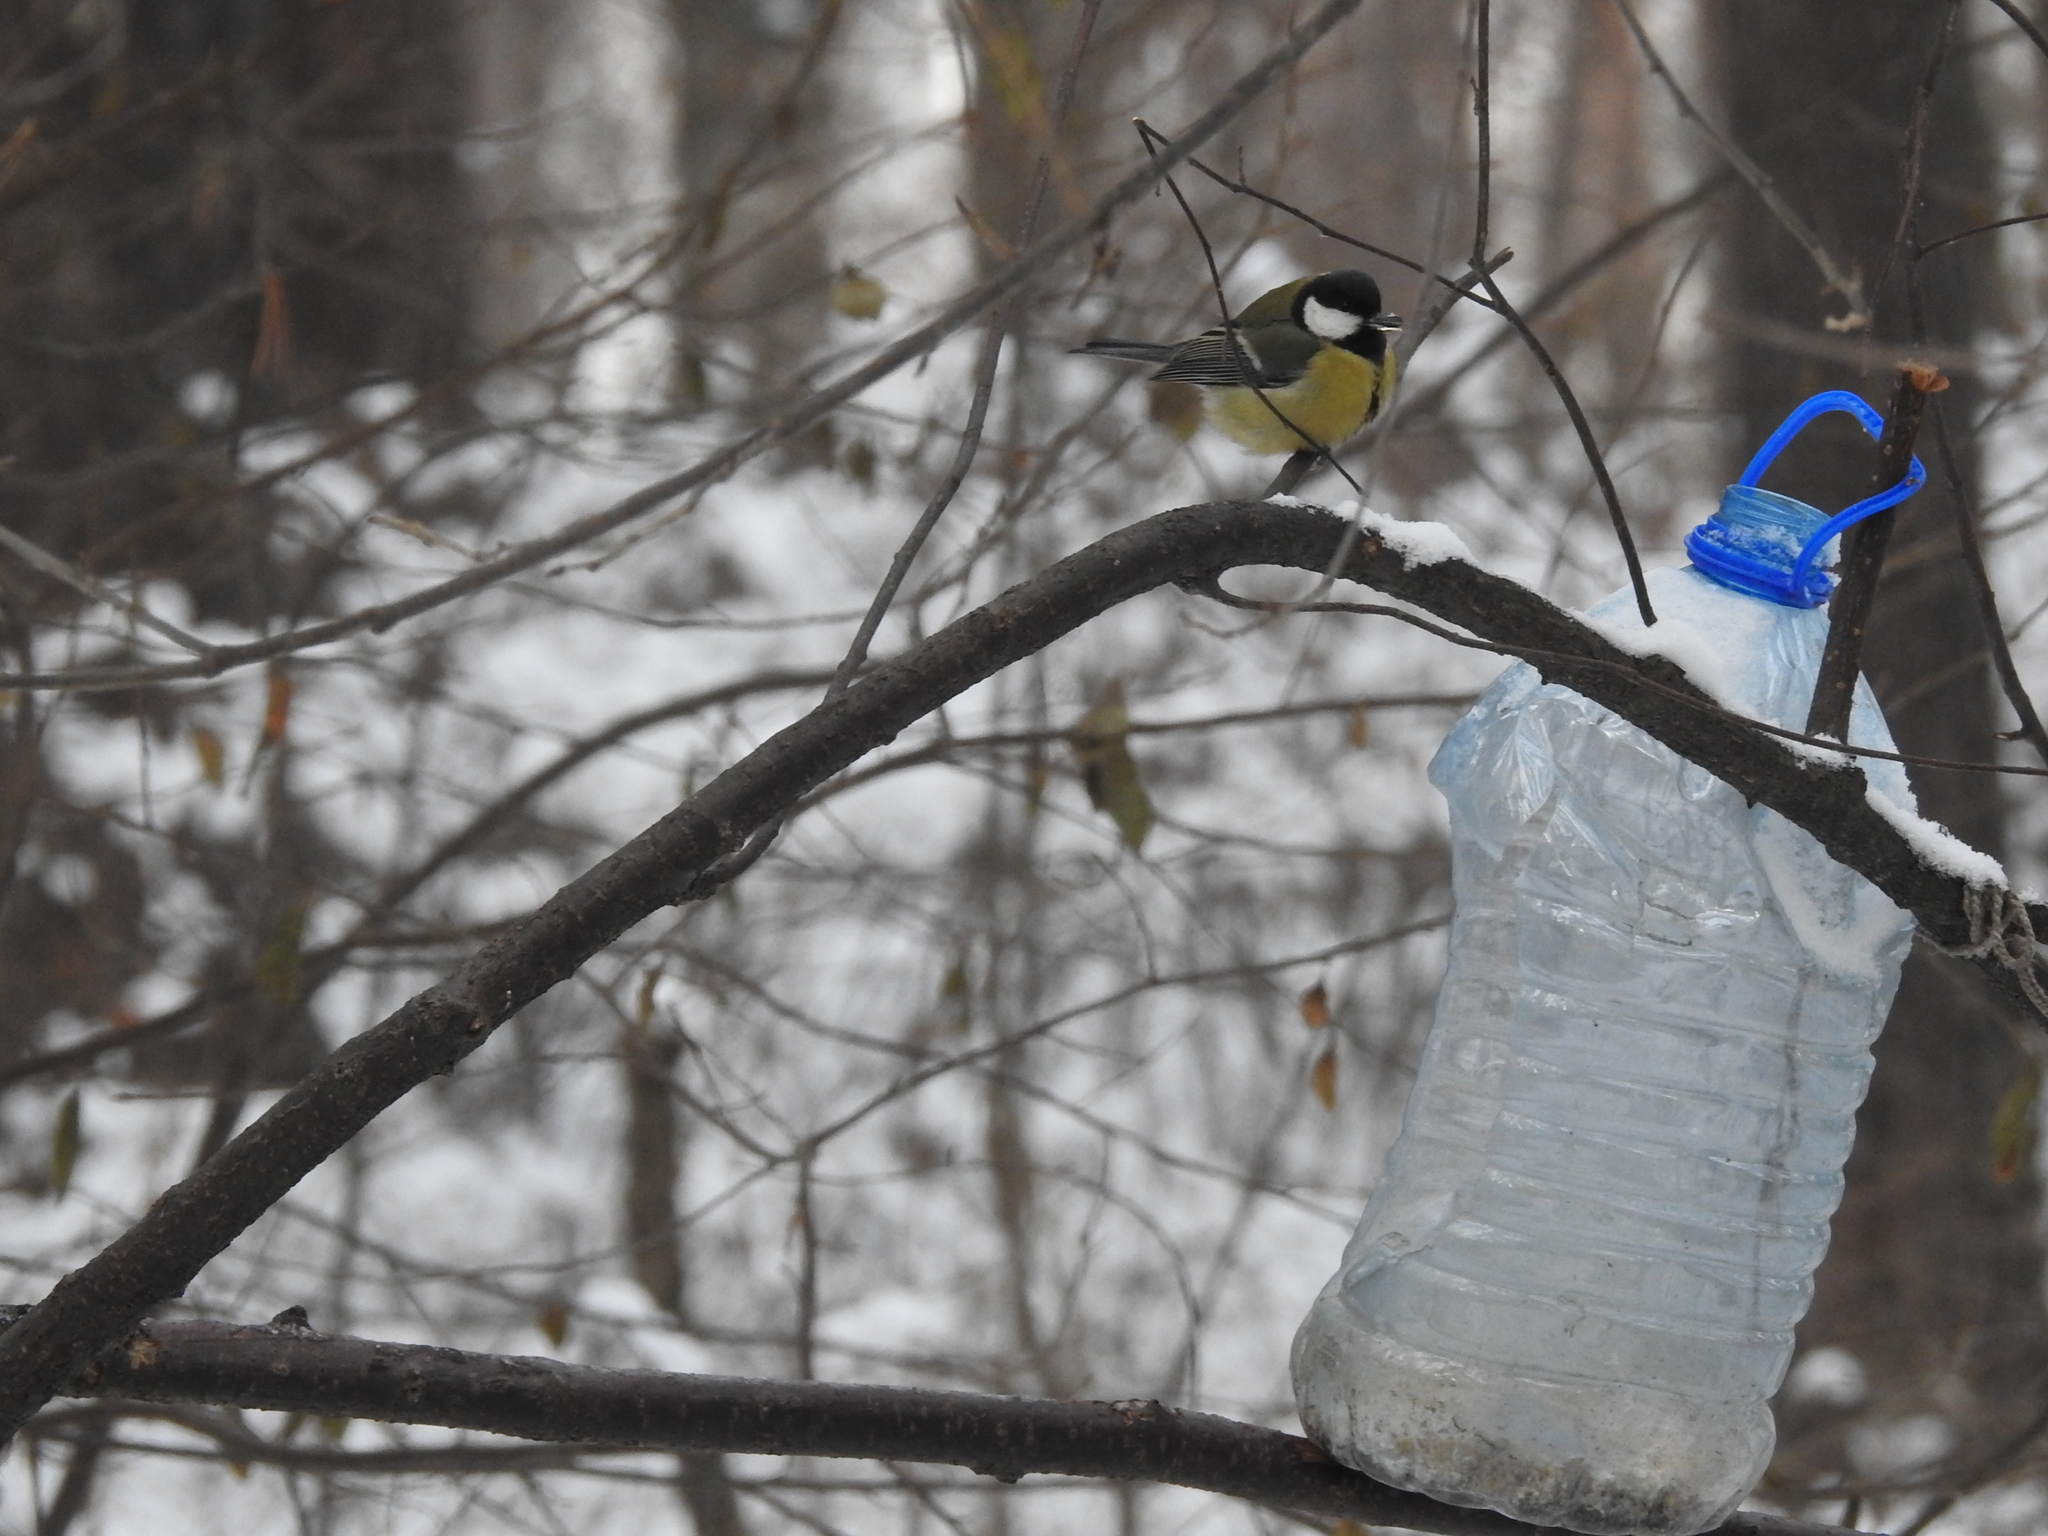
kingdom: Animalia
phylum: Chordata
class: Aves
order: Passeriformes
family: Paridae
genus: Parus
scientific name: Parus major
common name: Great tit
